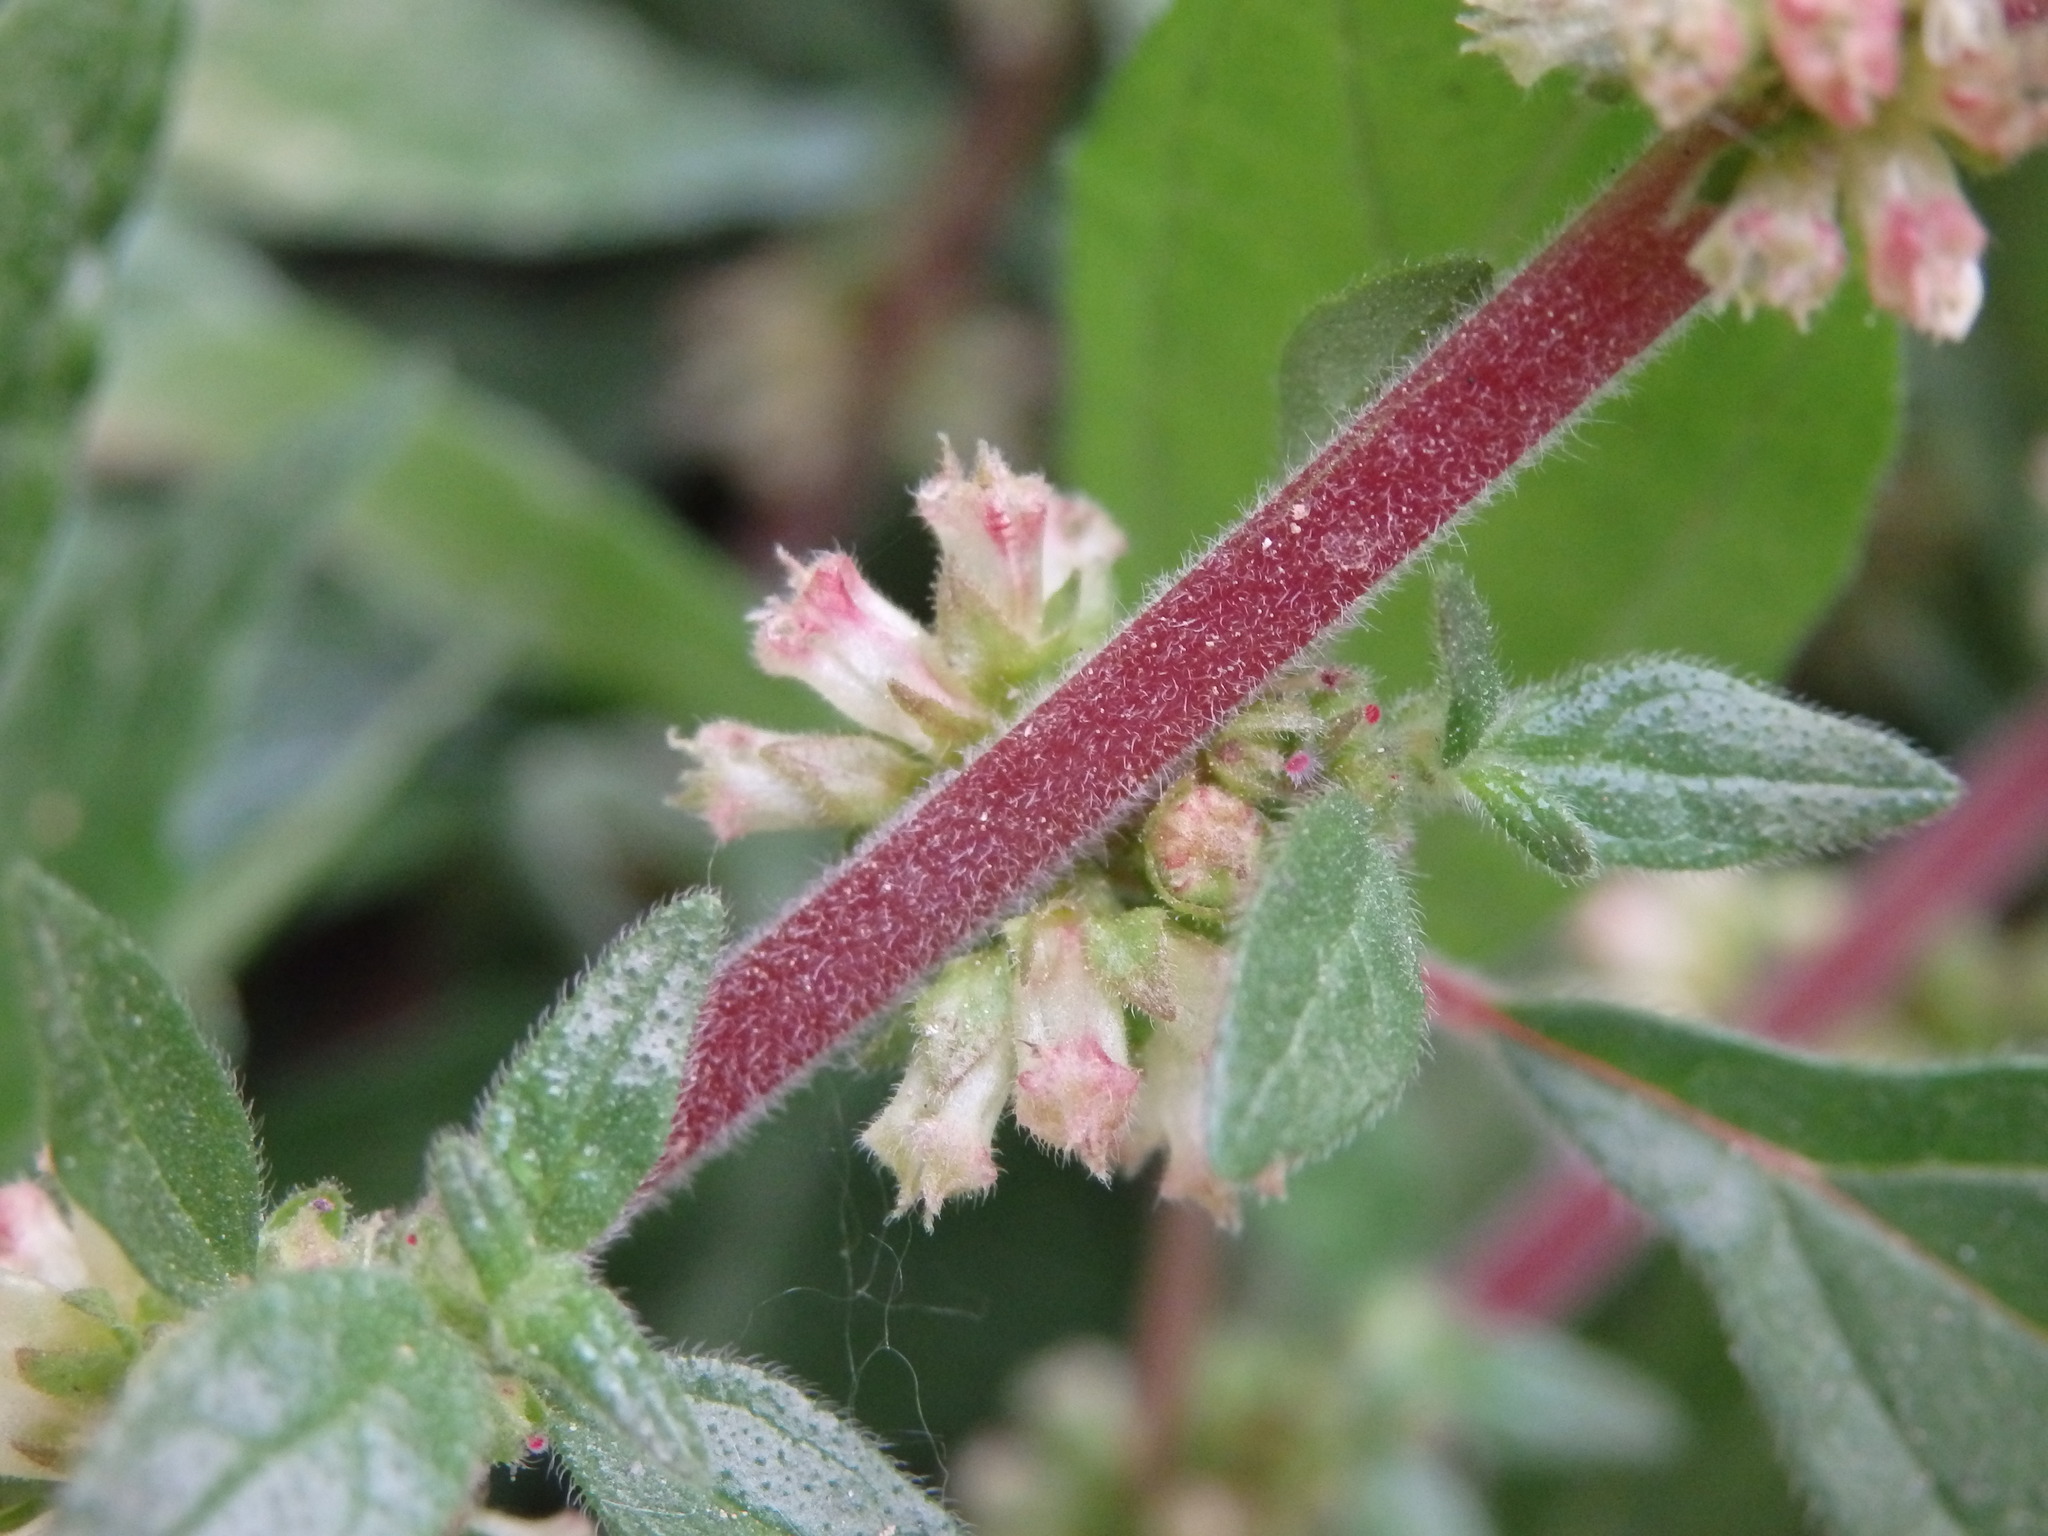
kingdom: Plantae
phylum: Tracheophyta
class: Magnoliopsida
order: Rosales
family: Urticaceae
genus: Parietaria
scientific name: Parietaria judaica
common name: Pellitory-of-the-wall
